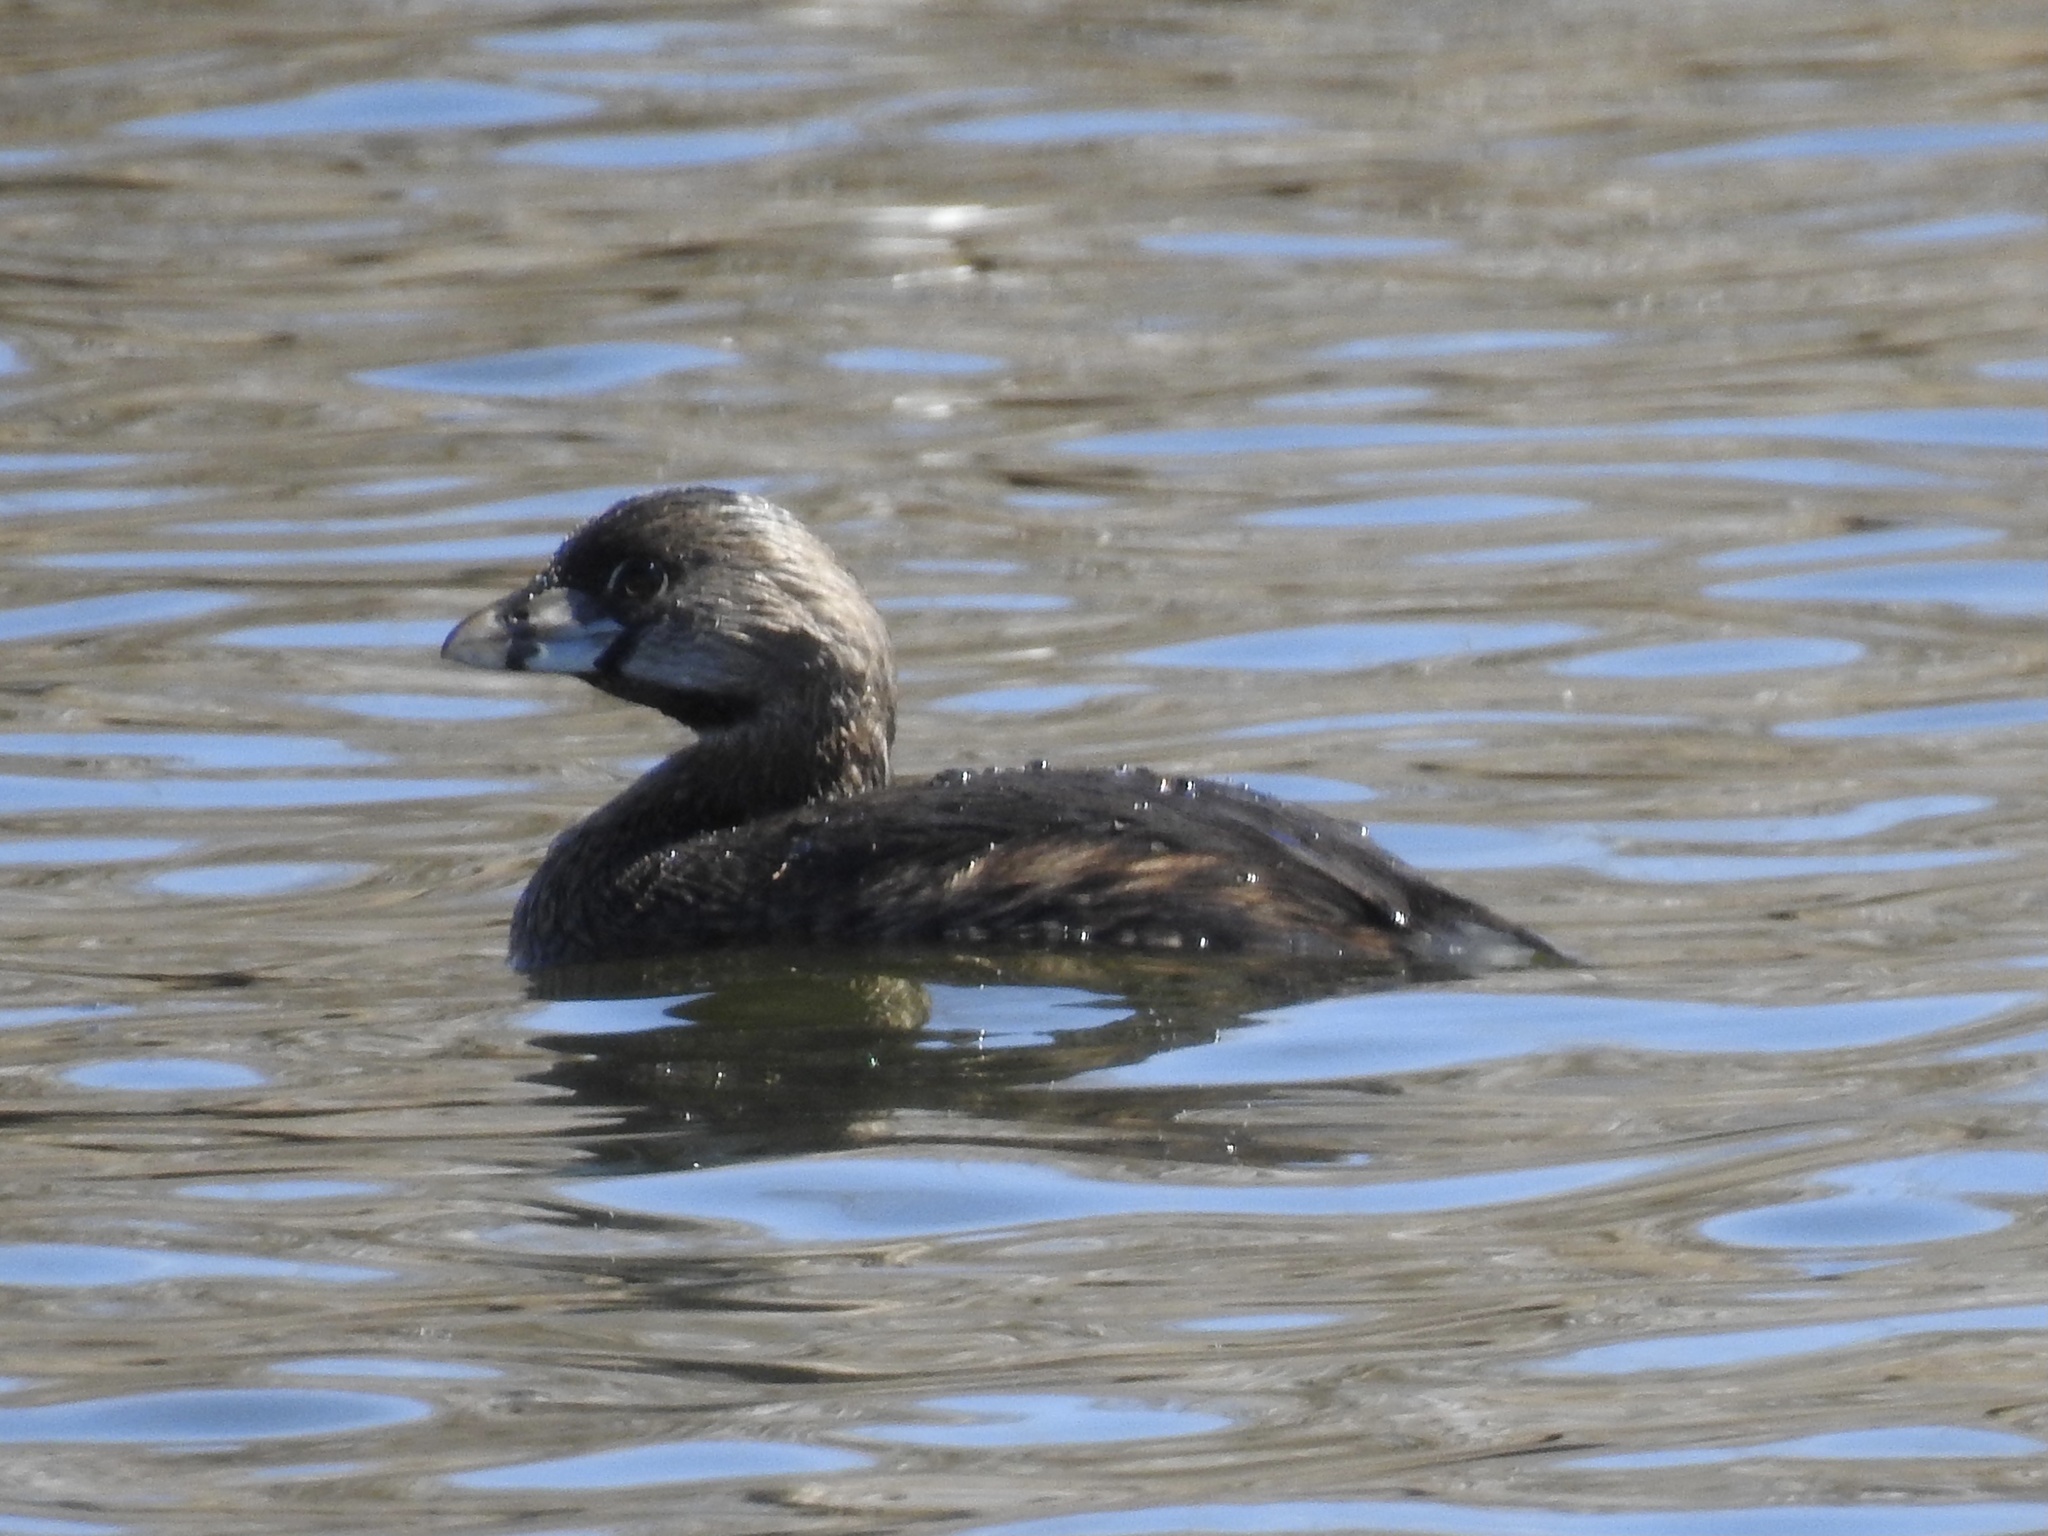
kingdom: Animalia
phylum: Chordata
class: Aves
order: Podicipediformes
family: Podicipedidae
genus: Podilymbus
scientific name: Podilymbus podiceps
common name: Pied-billed grebe
